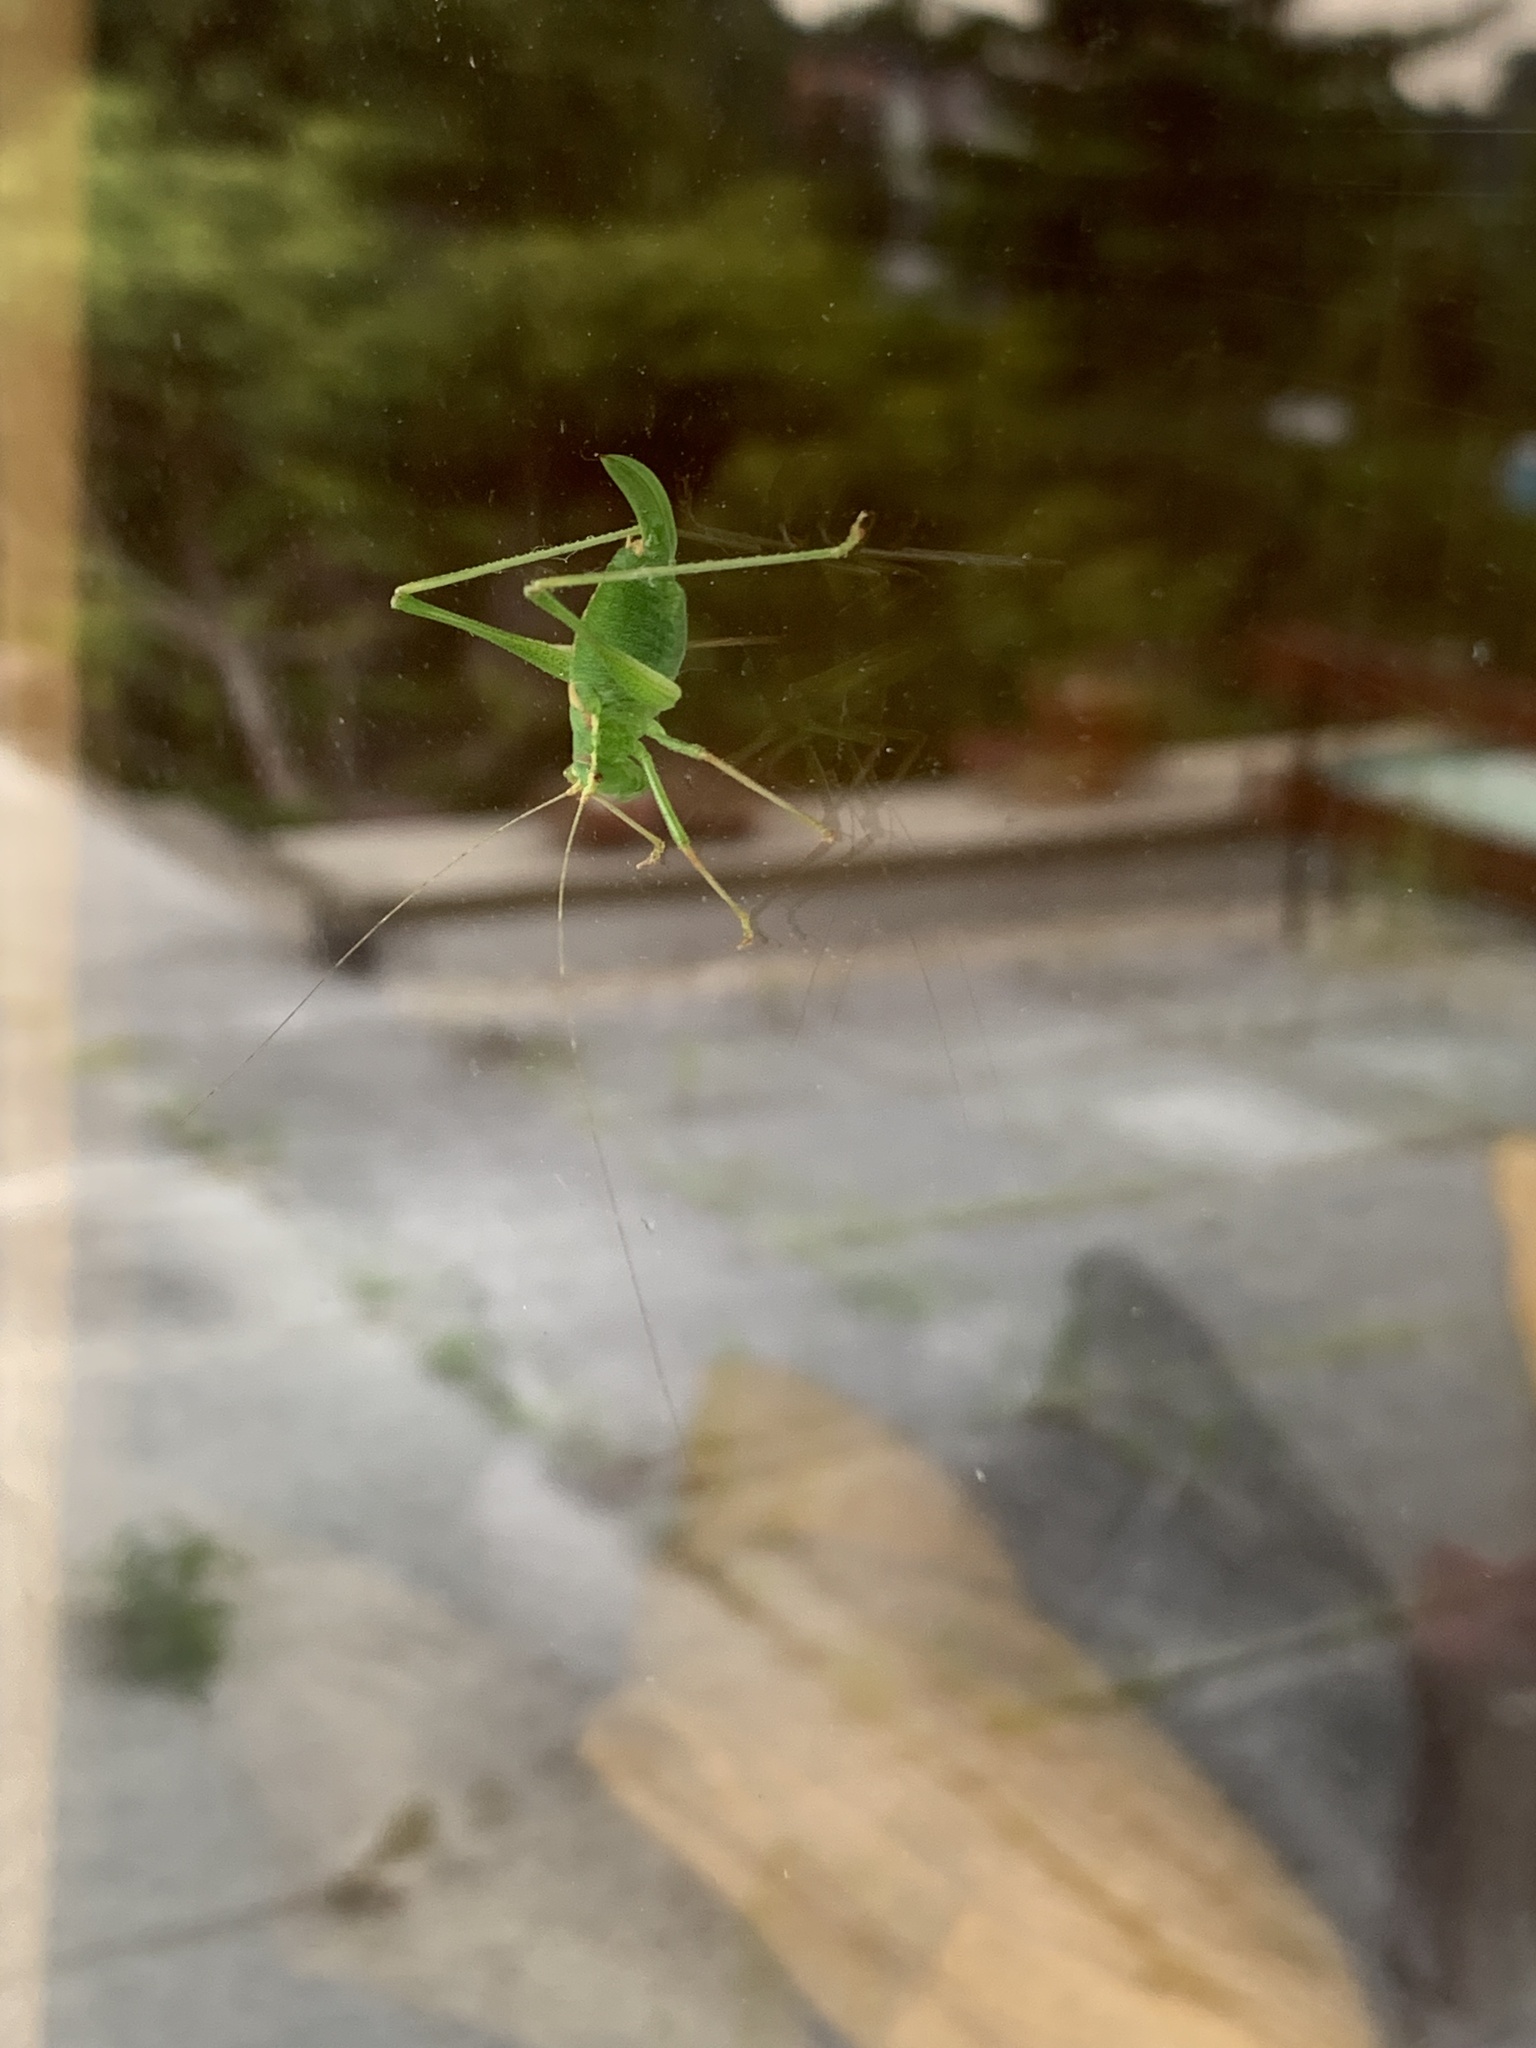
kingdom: Animalia
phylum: Arthropoda
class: Insecta
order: Orthoptera
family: Tettigoniidae
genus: Leptophyes
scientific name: Leptophyes punctatissima
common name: Speckled bush-cricket
